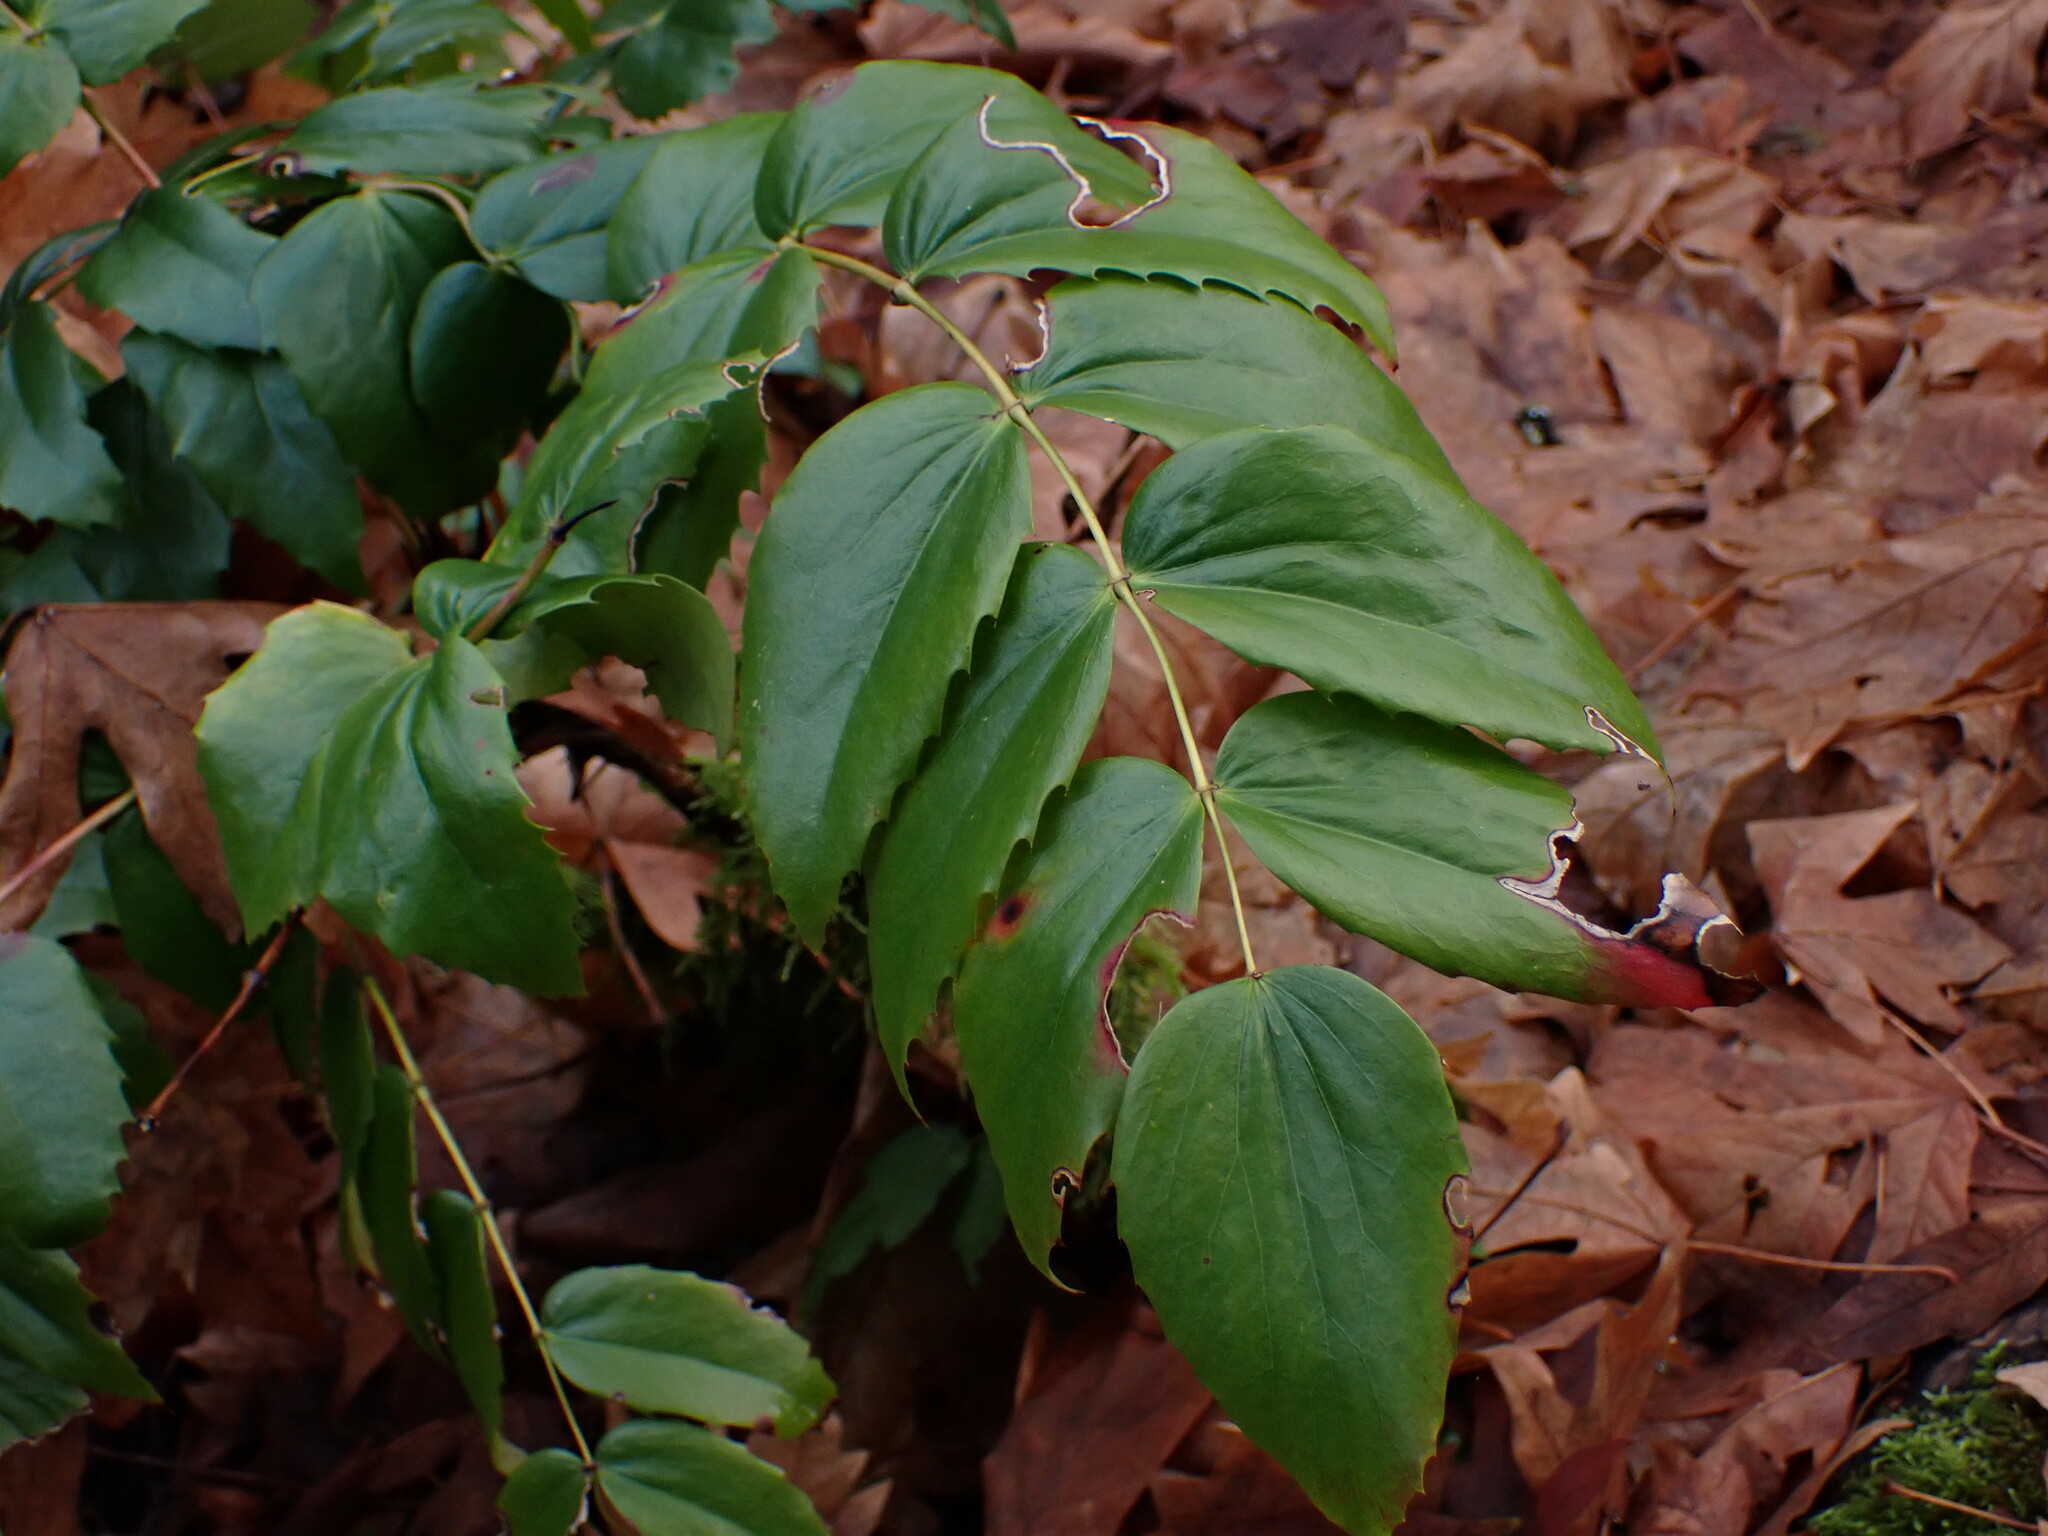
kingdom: Plantae
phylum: Tracheophyta
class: Magnoliopsida
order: Ranunculales
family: Berberidaceae
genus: Mahonia
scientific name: Mahonia nervosa
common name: Cascade oregon-grape
